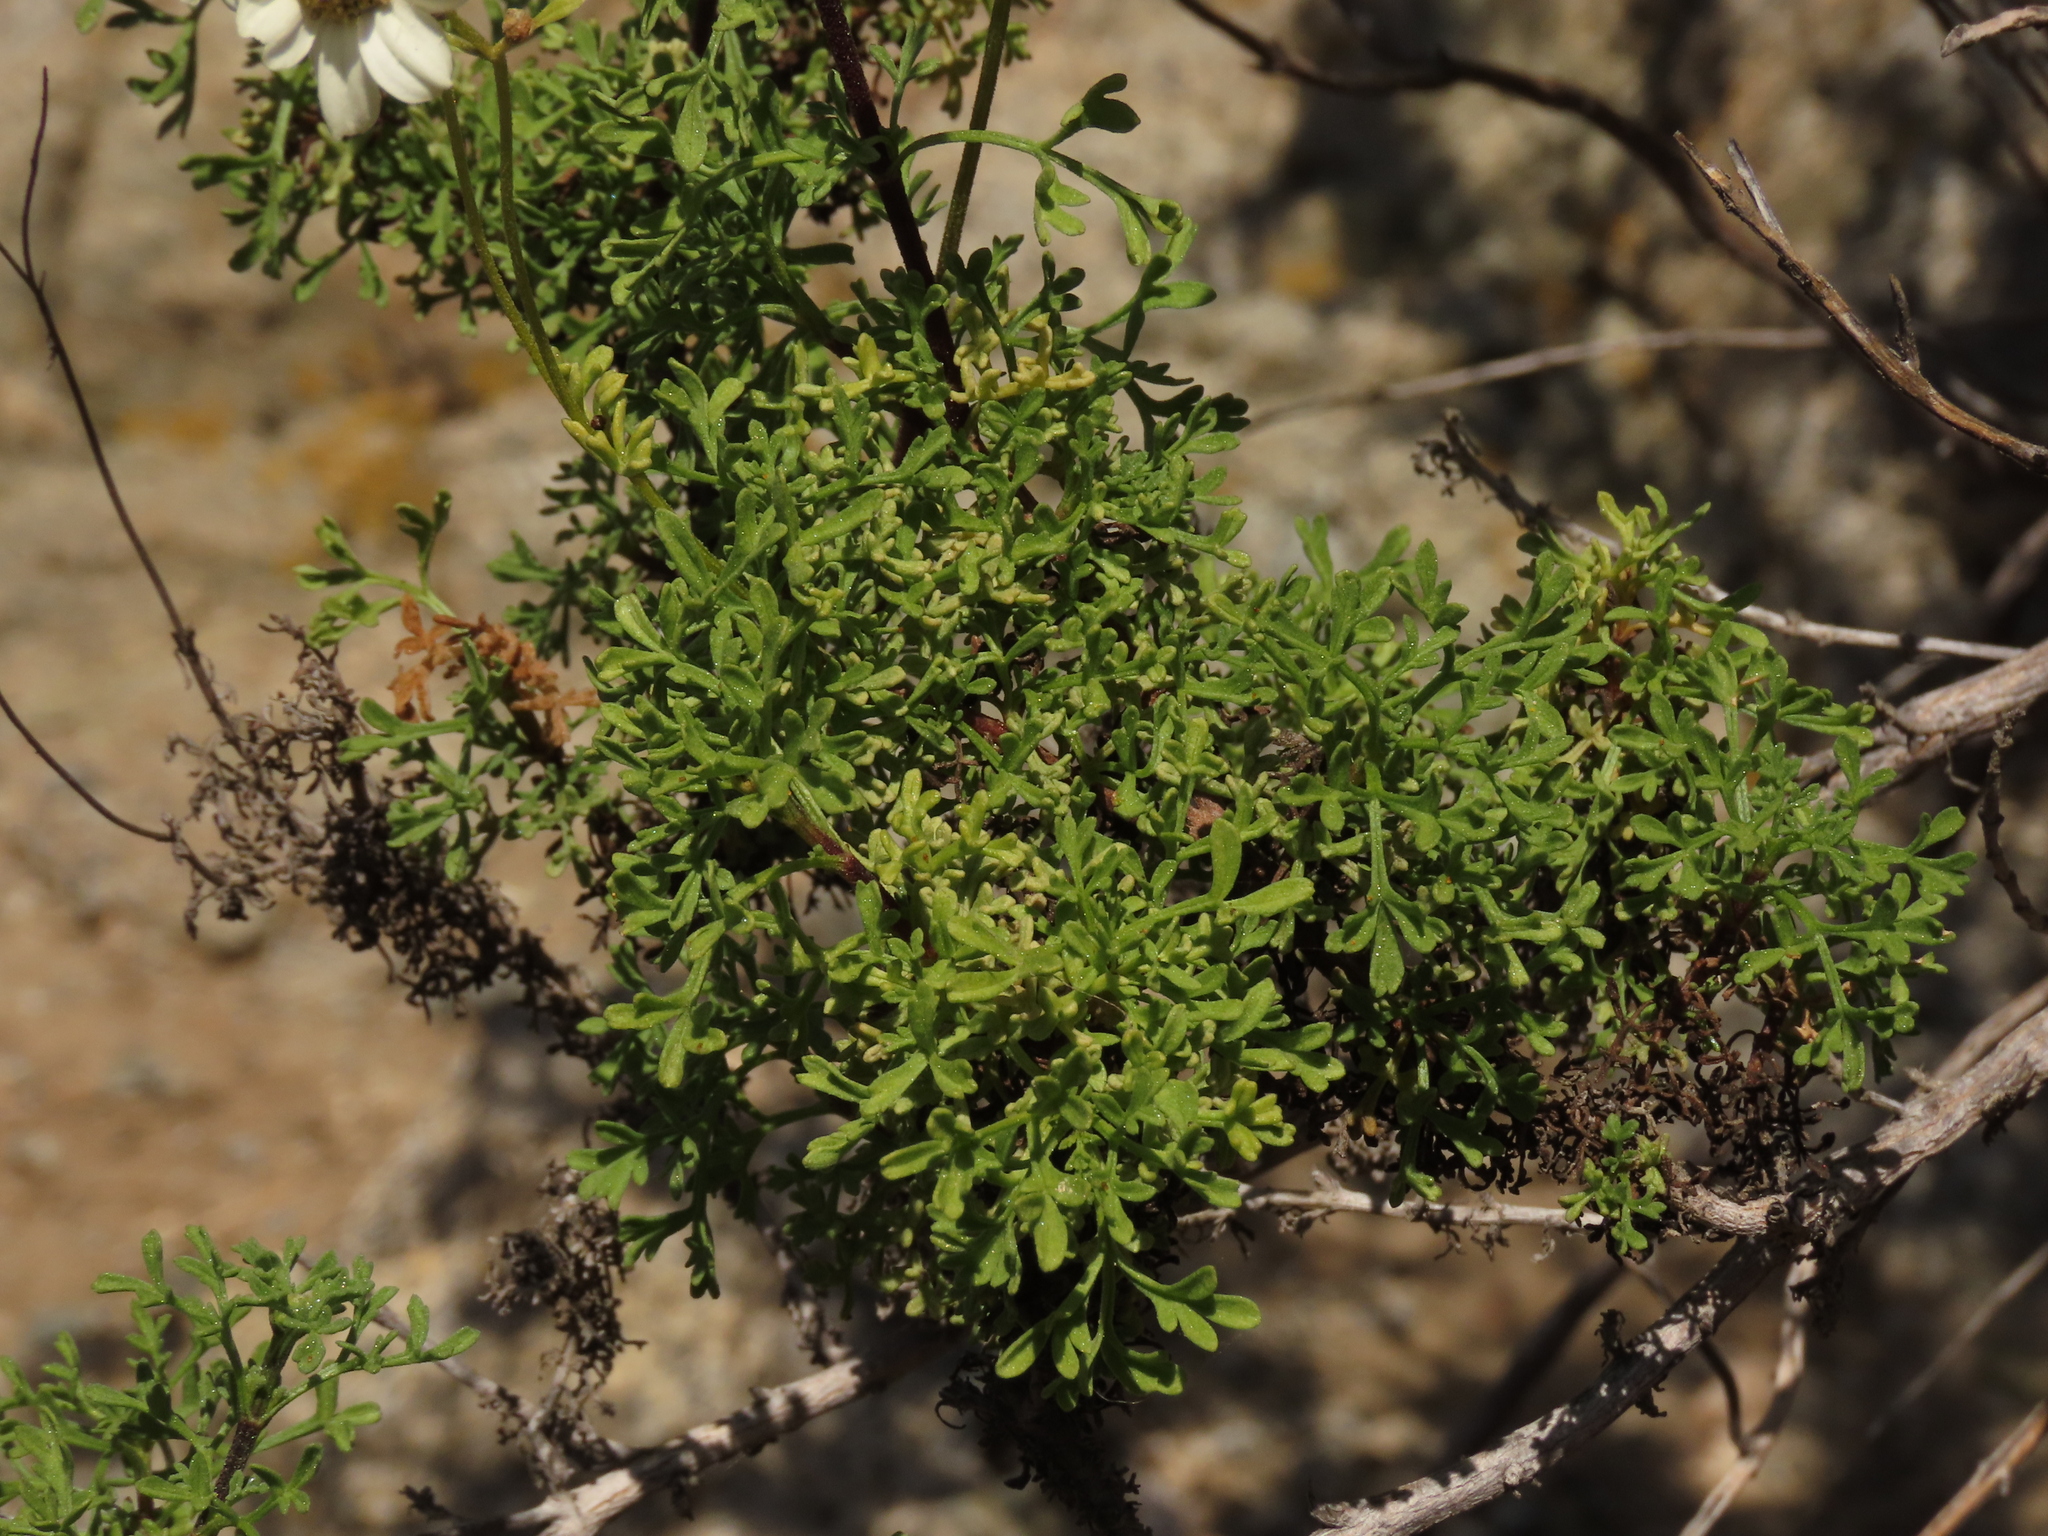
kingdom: Plantae
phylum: Tracheophyta
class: Magnoliopsida
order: Asterales
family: Asteraceae
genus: Bahia
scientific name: Bahia ambrosioides
